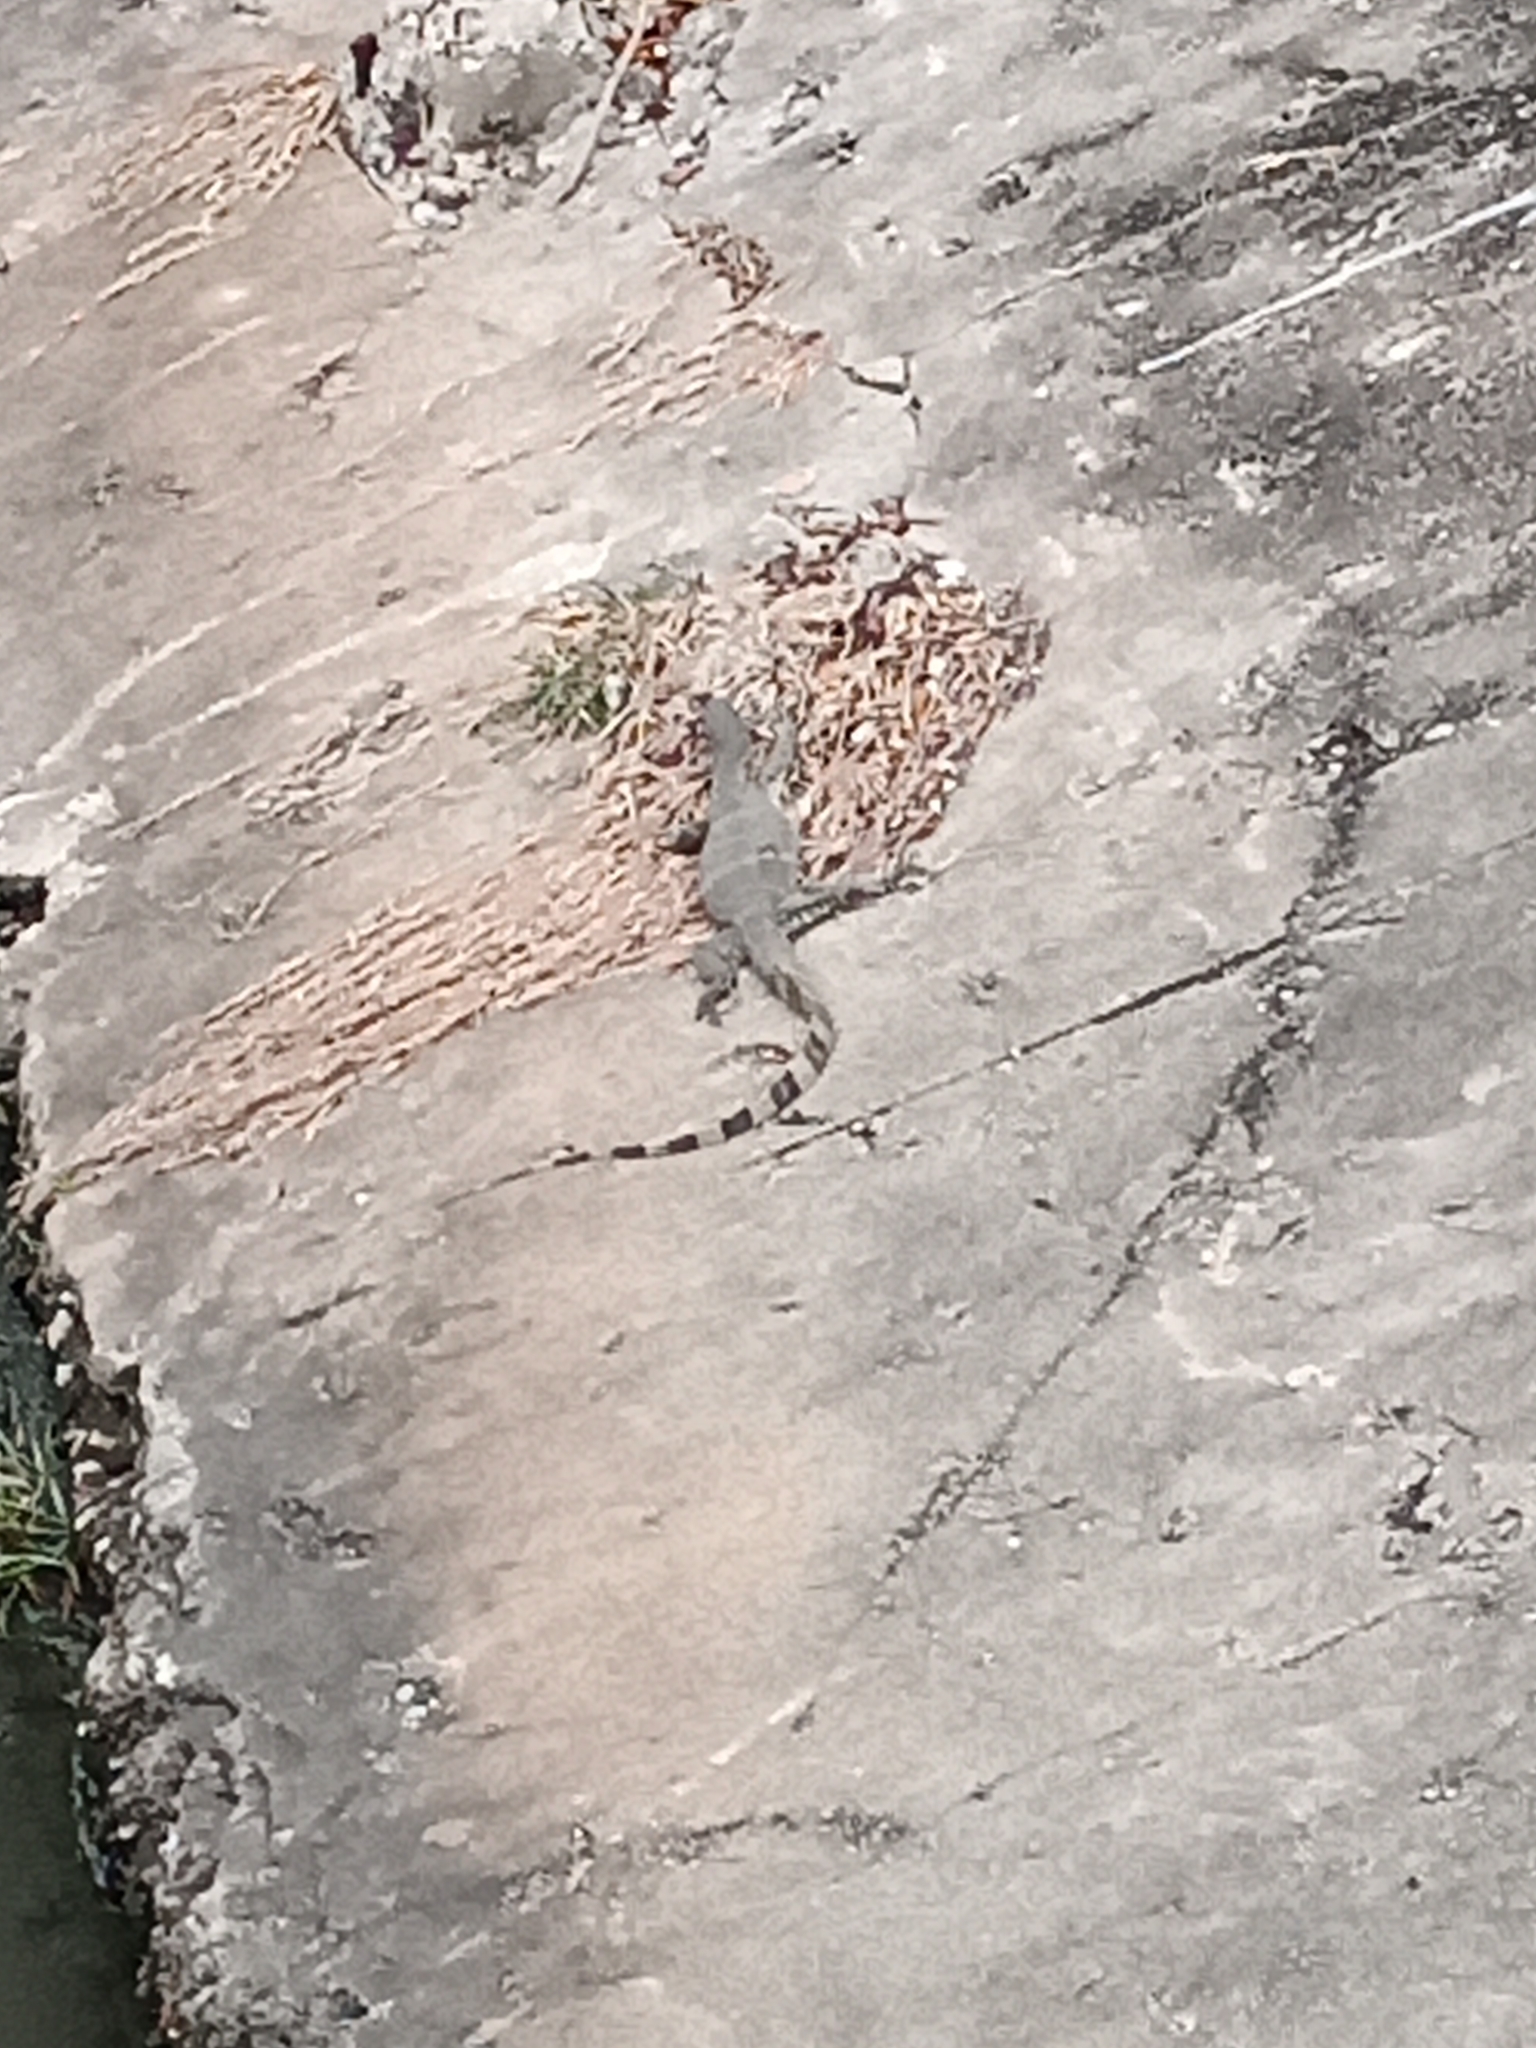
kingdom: Animalia
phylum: Chordata
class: Squamata
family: Varanidae
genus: Varanus
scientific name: Varanus salvator
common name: Common water monitor
